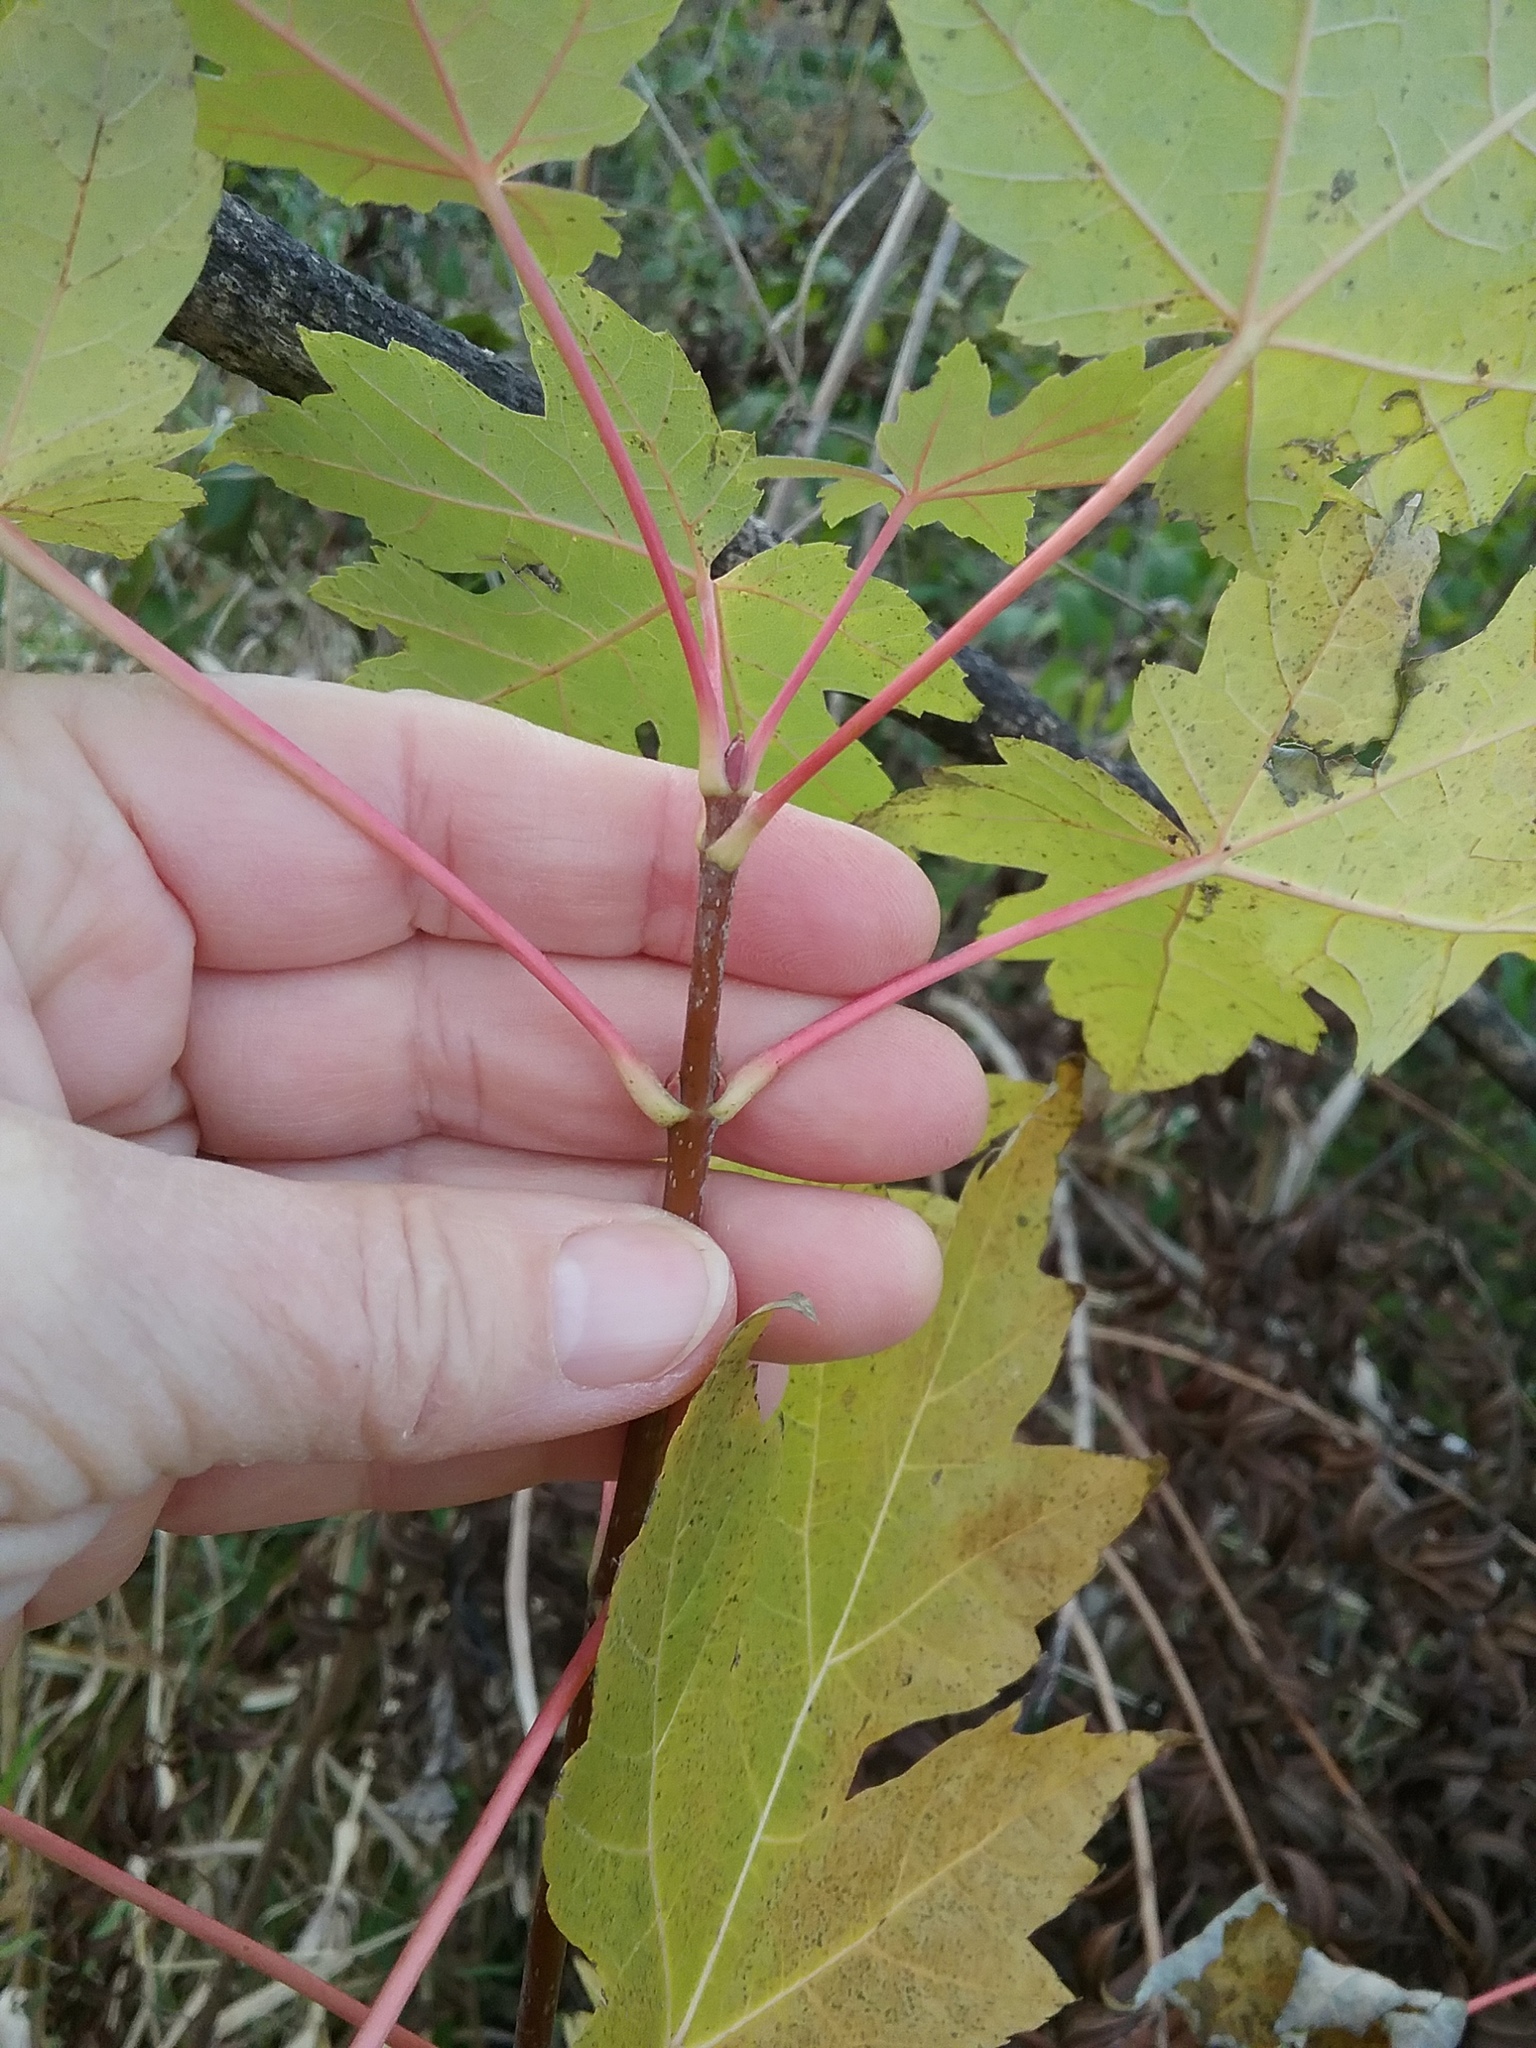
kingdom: Plantae
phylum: Tracheophyta
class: Magnoliopsida
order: Sapindales
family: Sapindaceae
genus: Acer
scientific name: Acer saccharinum
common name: Silver maple
